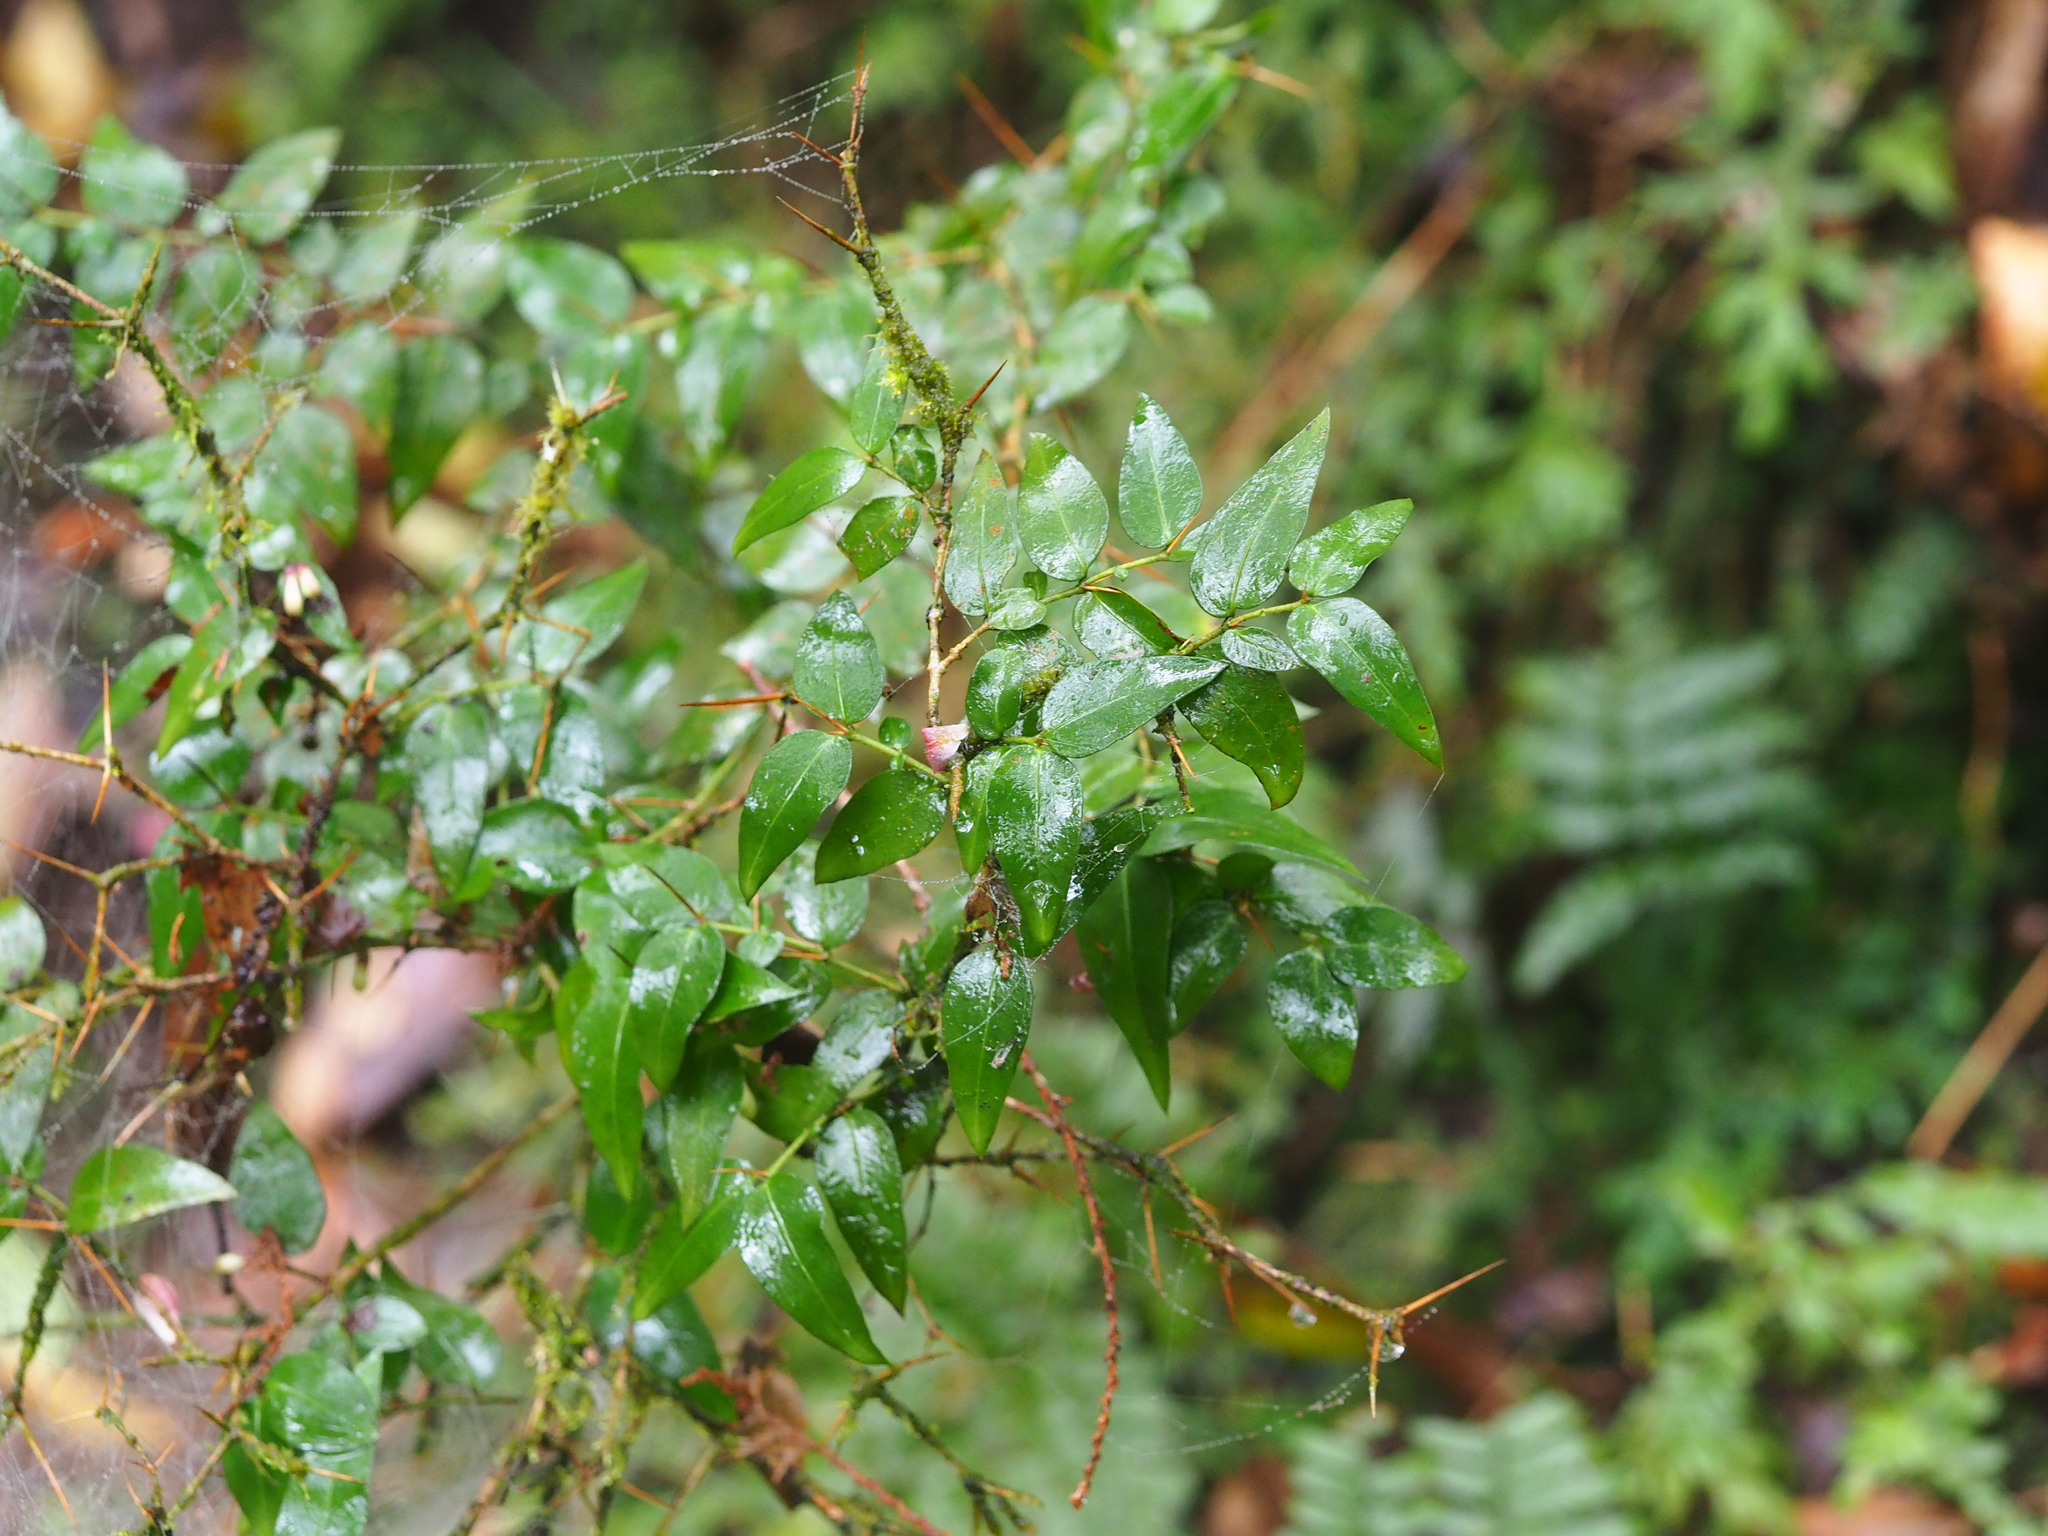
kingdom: Plantae
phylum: Tracheophyta
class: Magnoliopsida
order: Gentianales
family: Rubiaceae
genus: Damnacanthus
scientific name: Damnacanthus indicus
